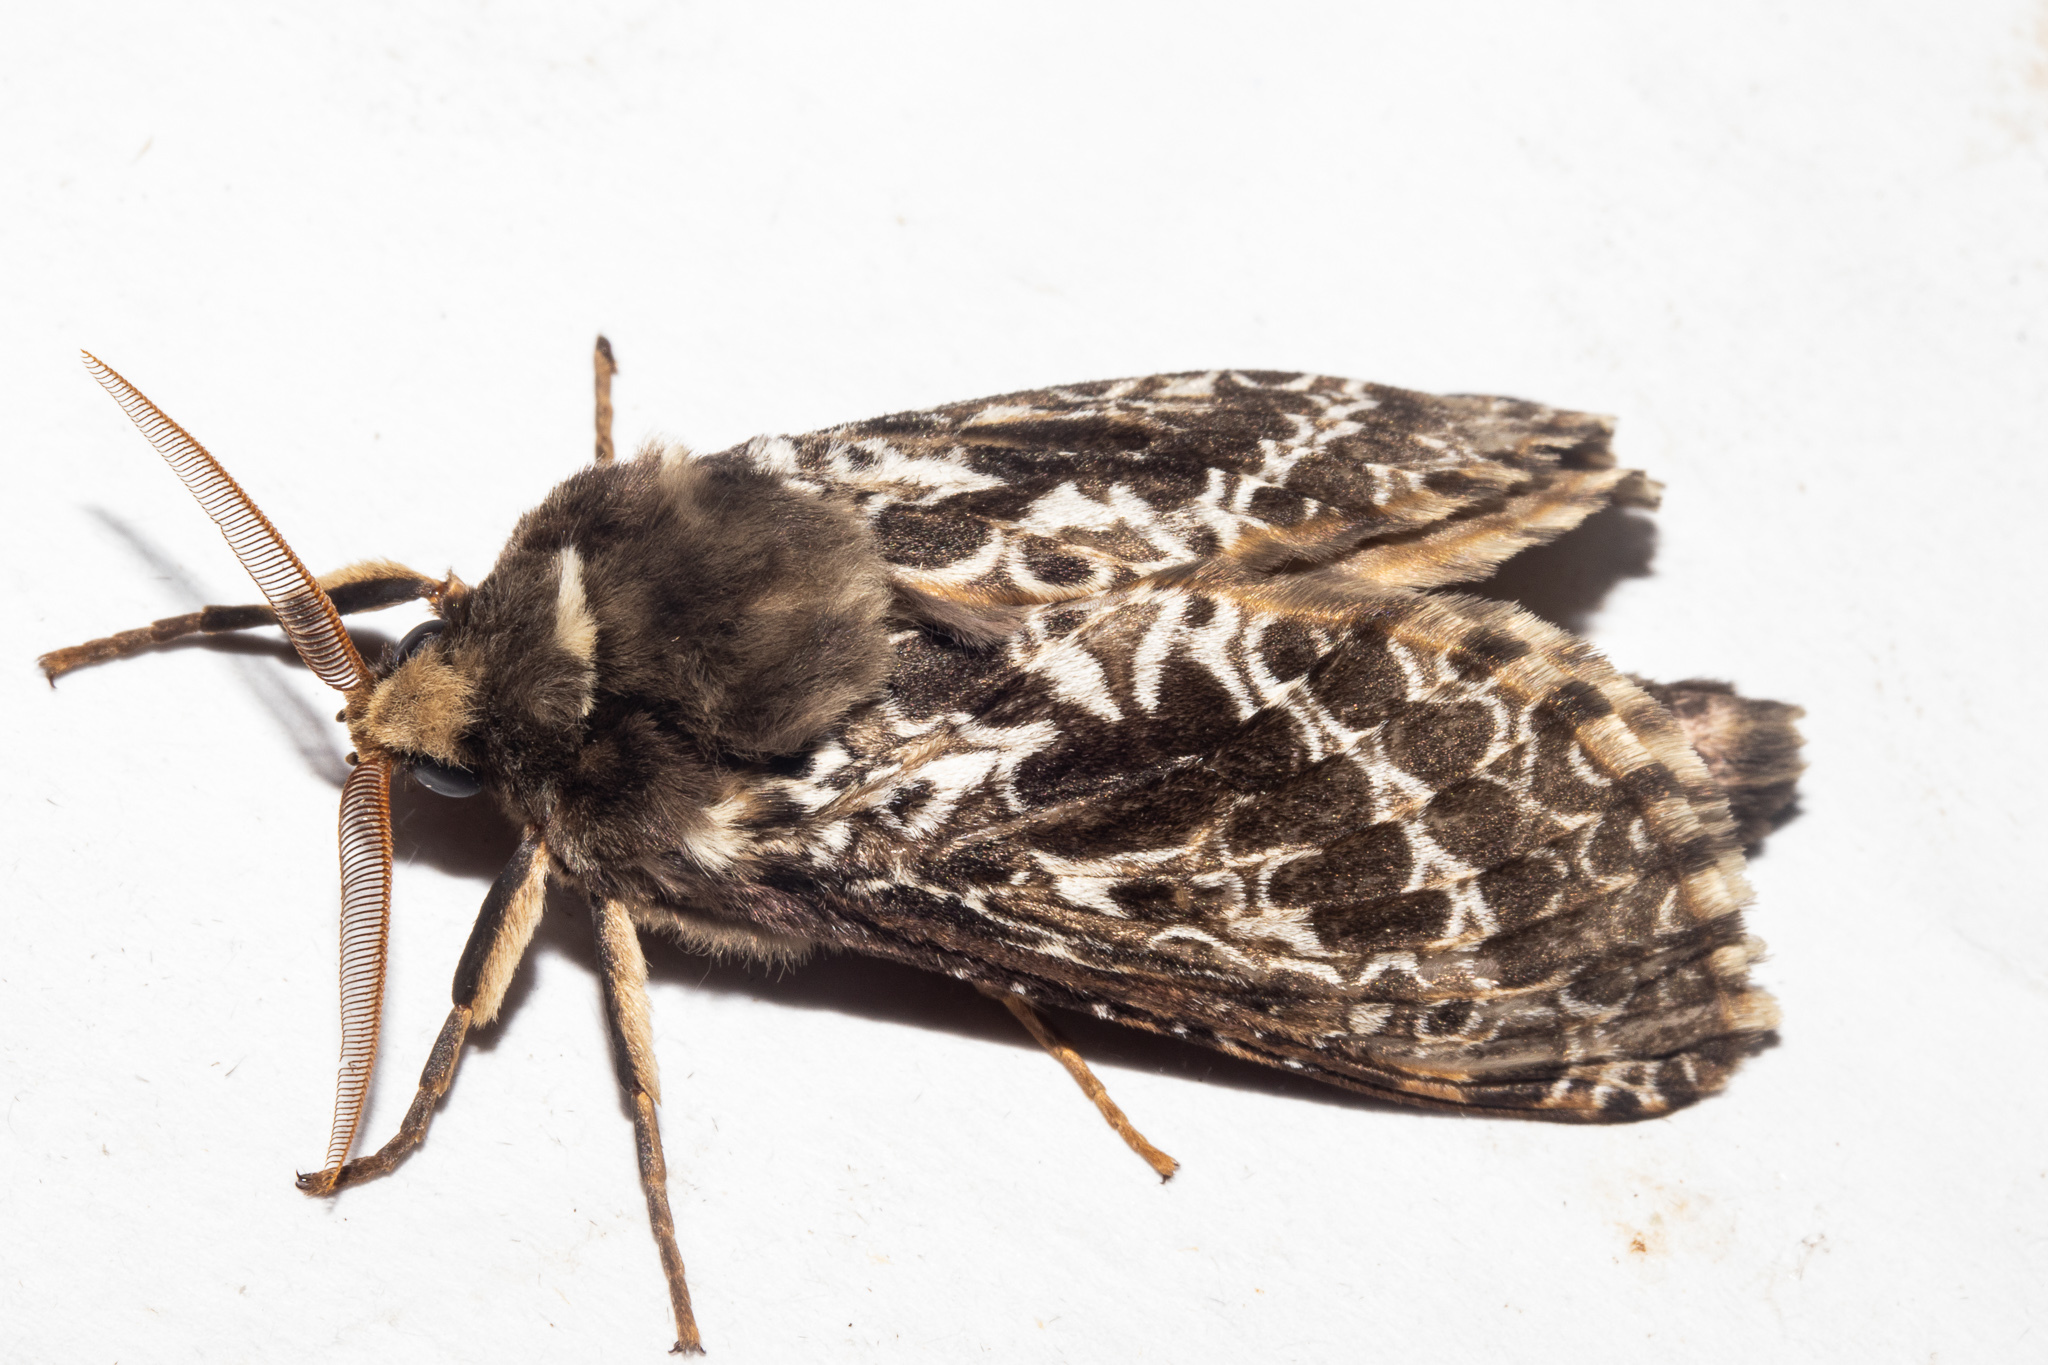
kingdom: Animalia
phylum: Arthropoda
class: Insecta
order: Lepidoptera
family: Hepialidae
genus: Aoraia
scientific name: Aoraia rufivena
